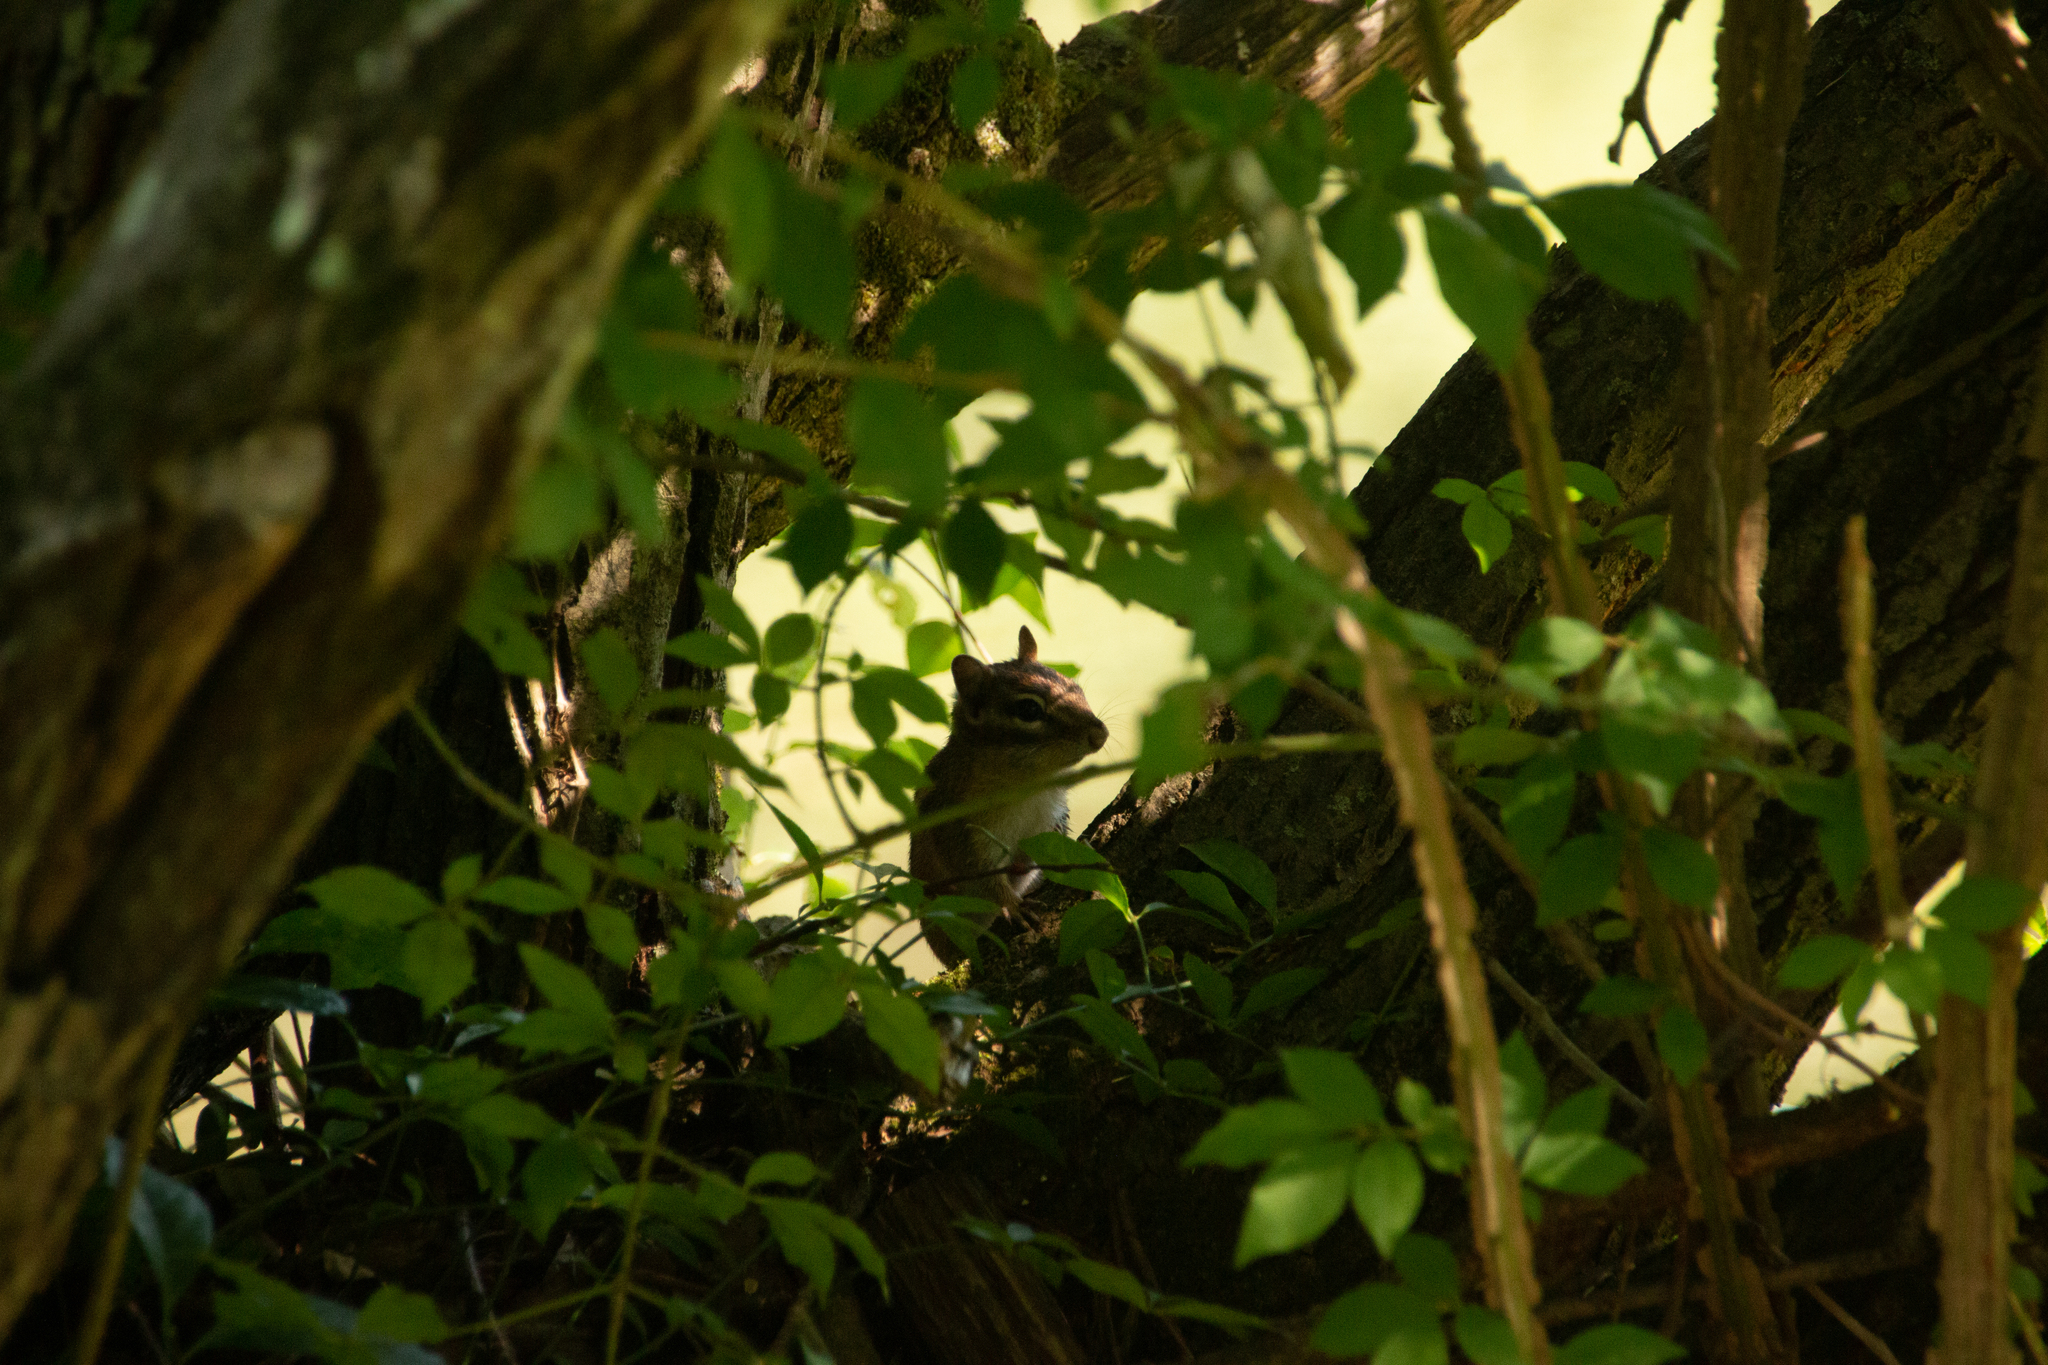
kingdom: Animalia
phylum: Chordata
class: Mammalia
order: Rodentia
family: Sciuridae
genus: Tamias
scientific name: Tamias striatus
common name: Eastern chipmunk
